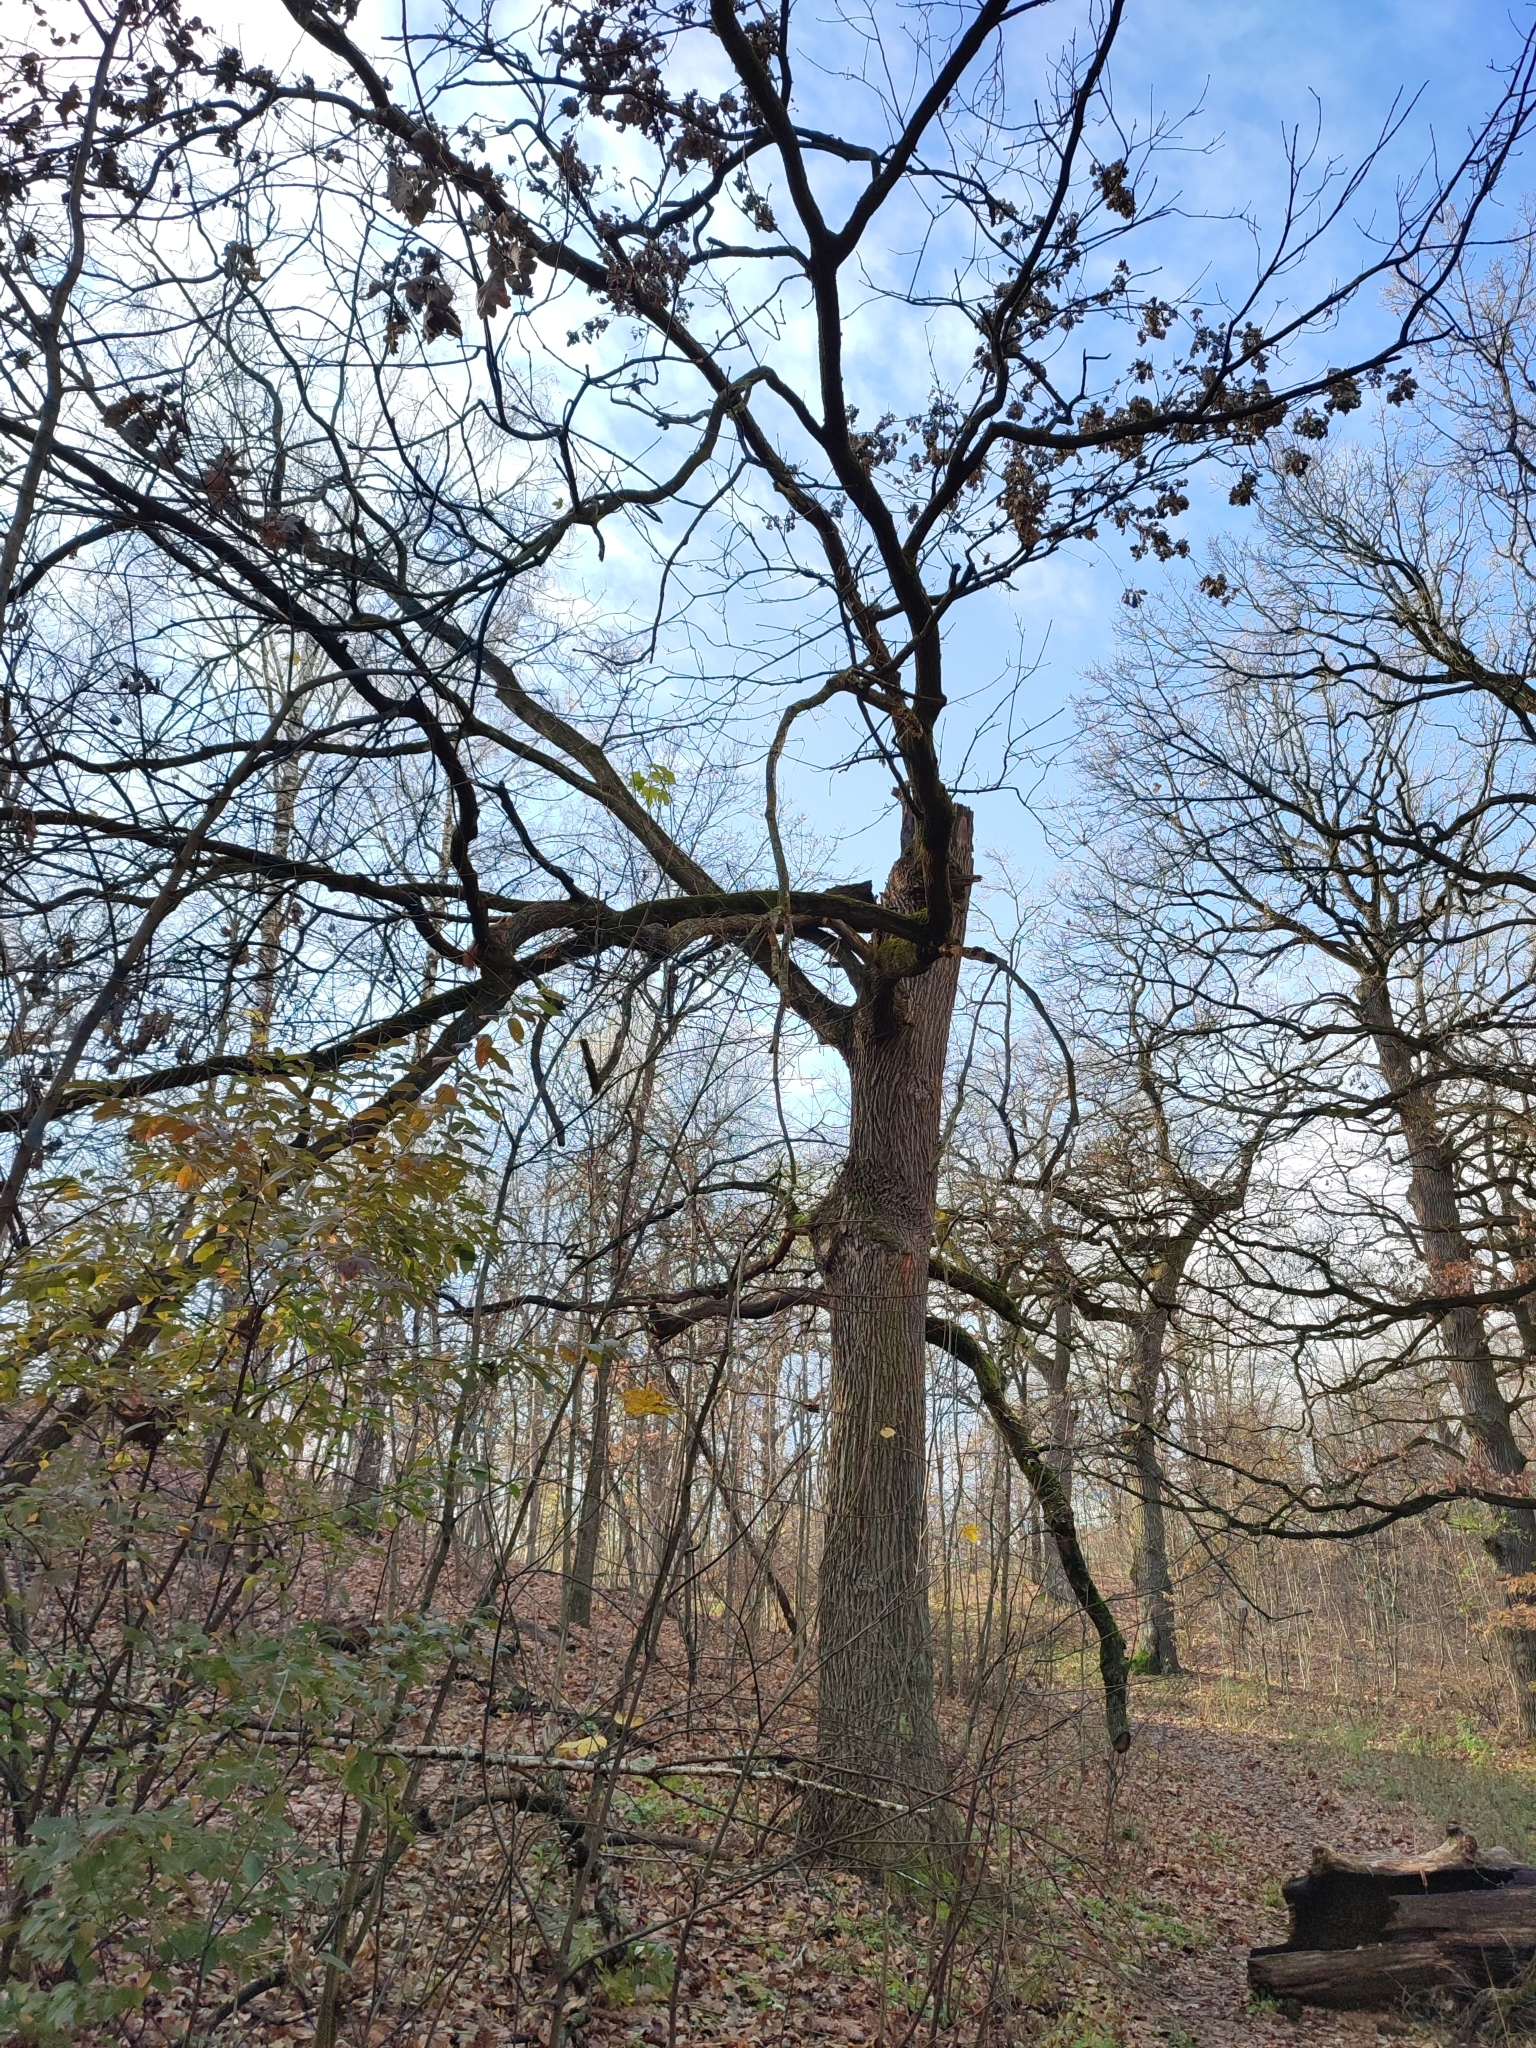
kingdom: Plantae
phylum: Tracheophyta
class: Magnoliopsida
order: Fagales
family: Fagaceae
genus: Quercus
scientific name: Quercus robur
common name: Pedunculate oak
